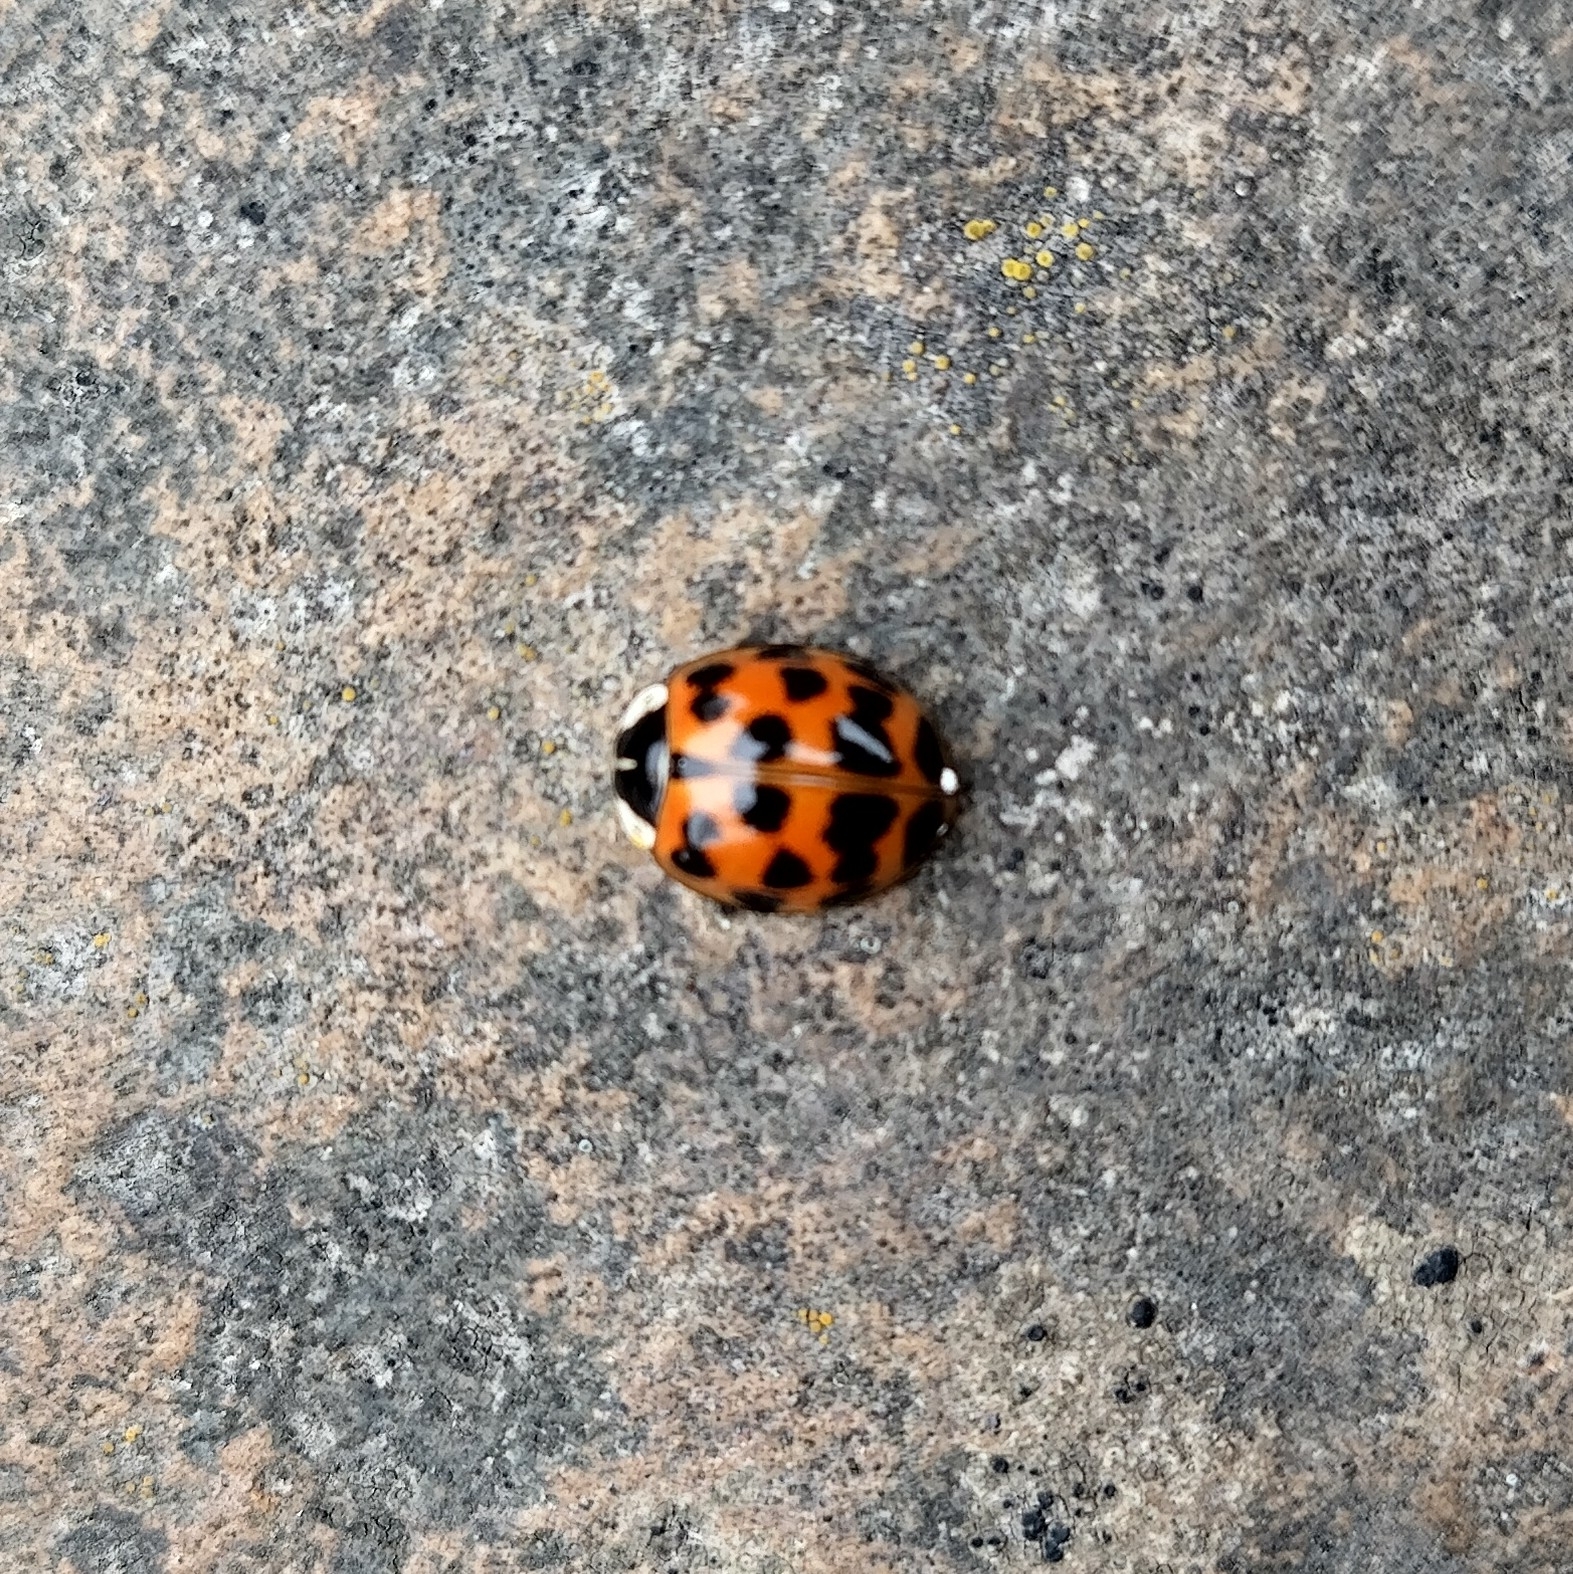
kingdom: Animalia
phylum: Arthropoda
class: Insecta
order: Coleoptera
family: Coccinellidae
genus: Harmonia
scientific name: Harmonia axyridis
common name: Harlequin ladybird
